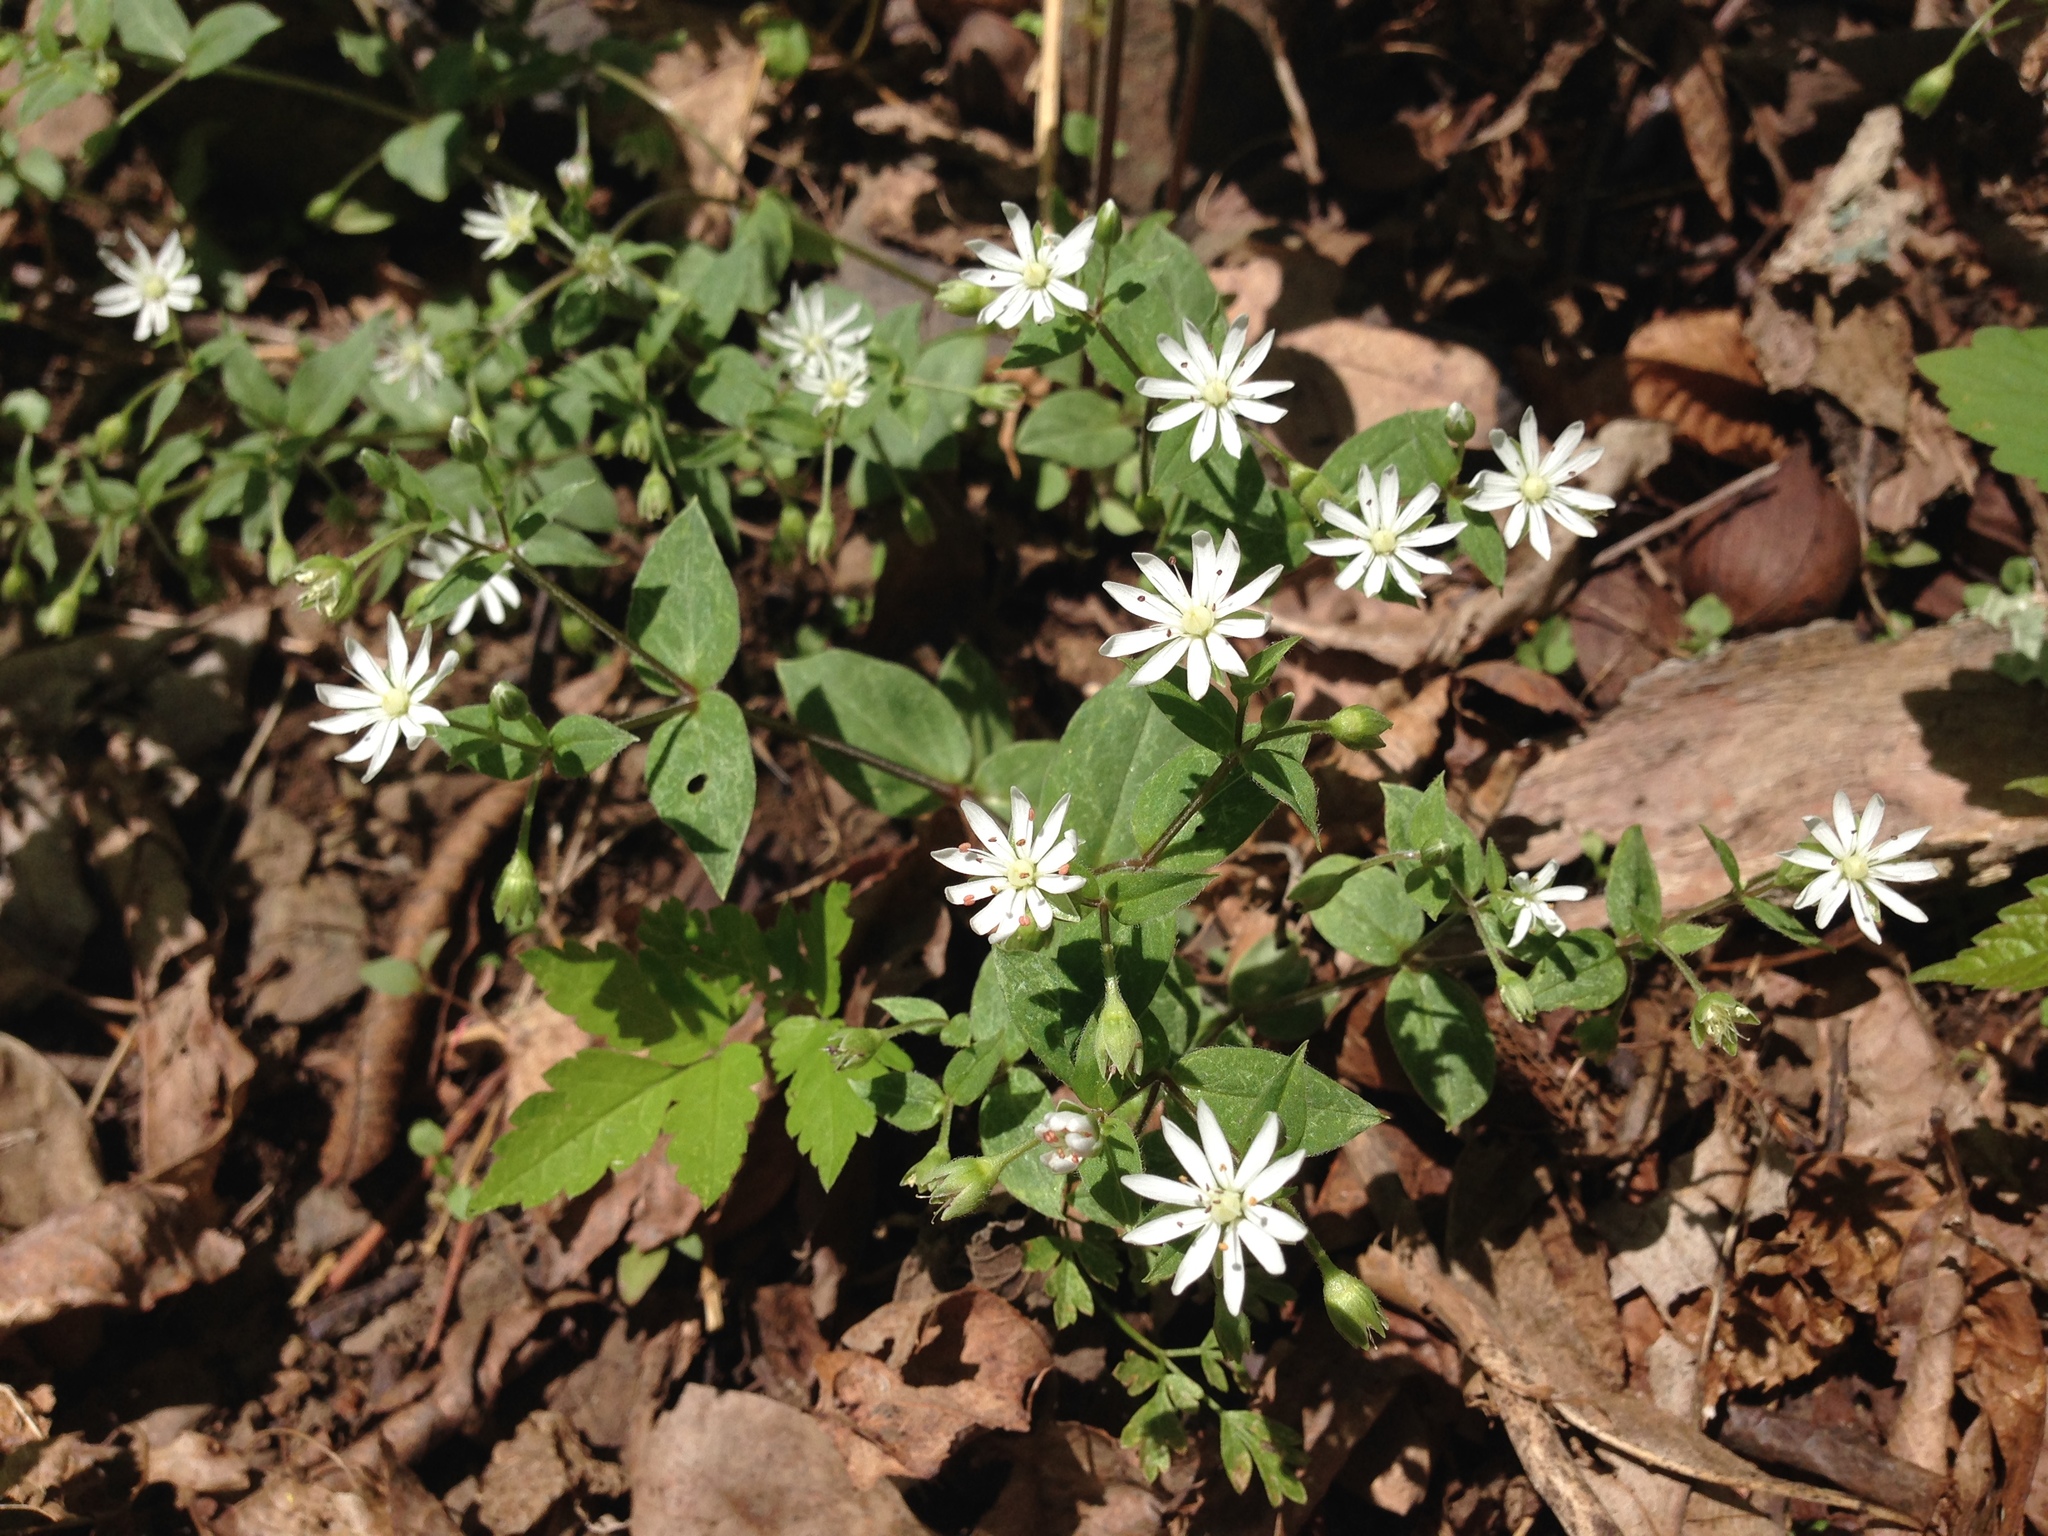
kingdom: Plantae
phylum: Tracheophyta
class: Magnoliopsida
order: Caryophyllales
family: Caryophyllaceae
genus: Stellaria
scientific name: Stellaria pubera
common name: Star chickweed
